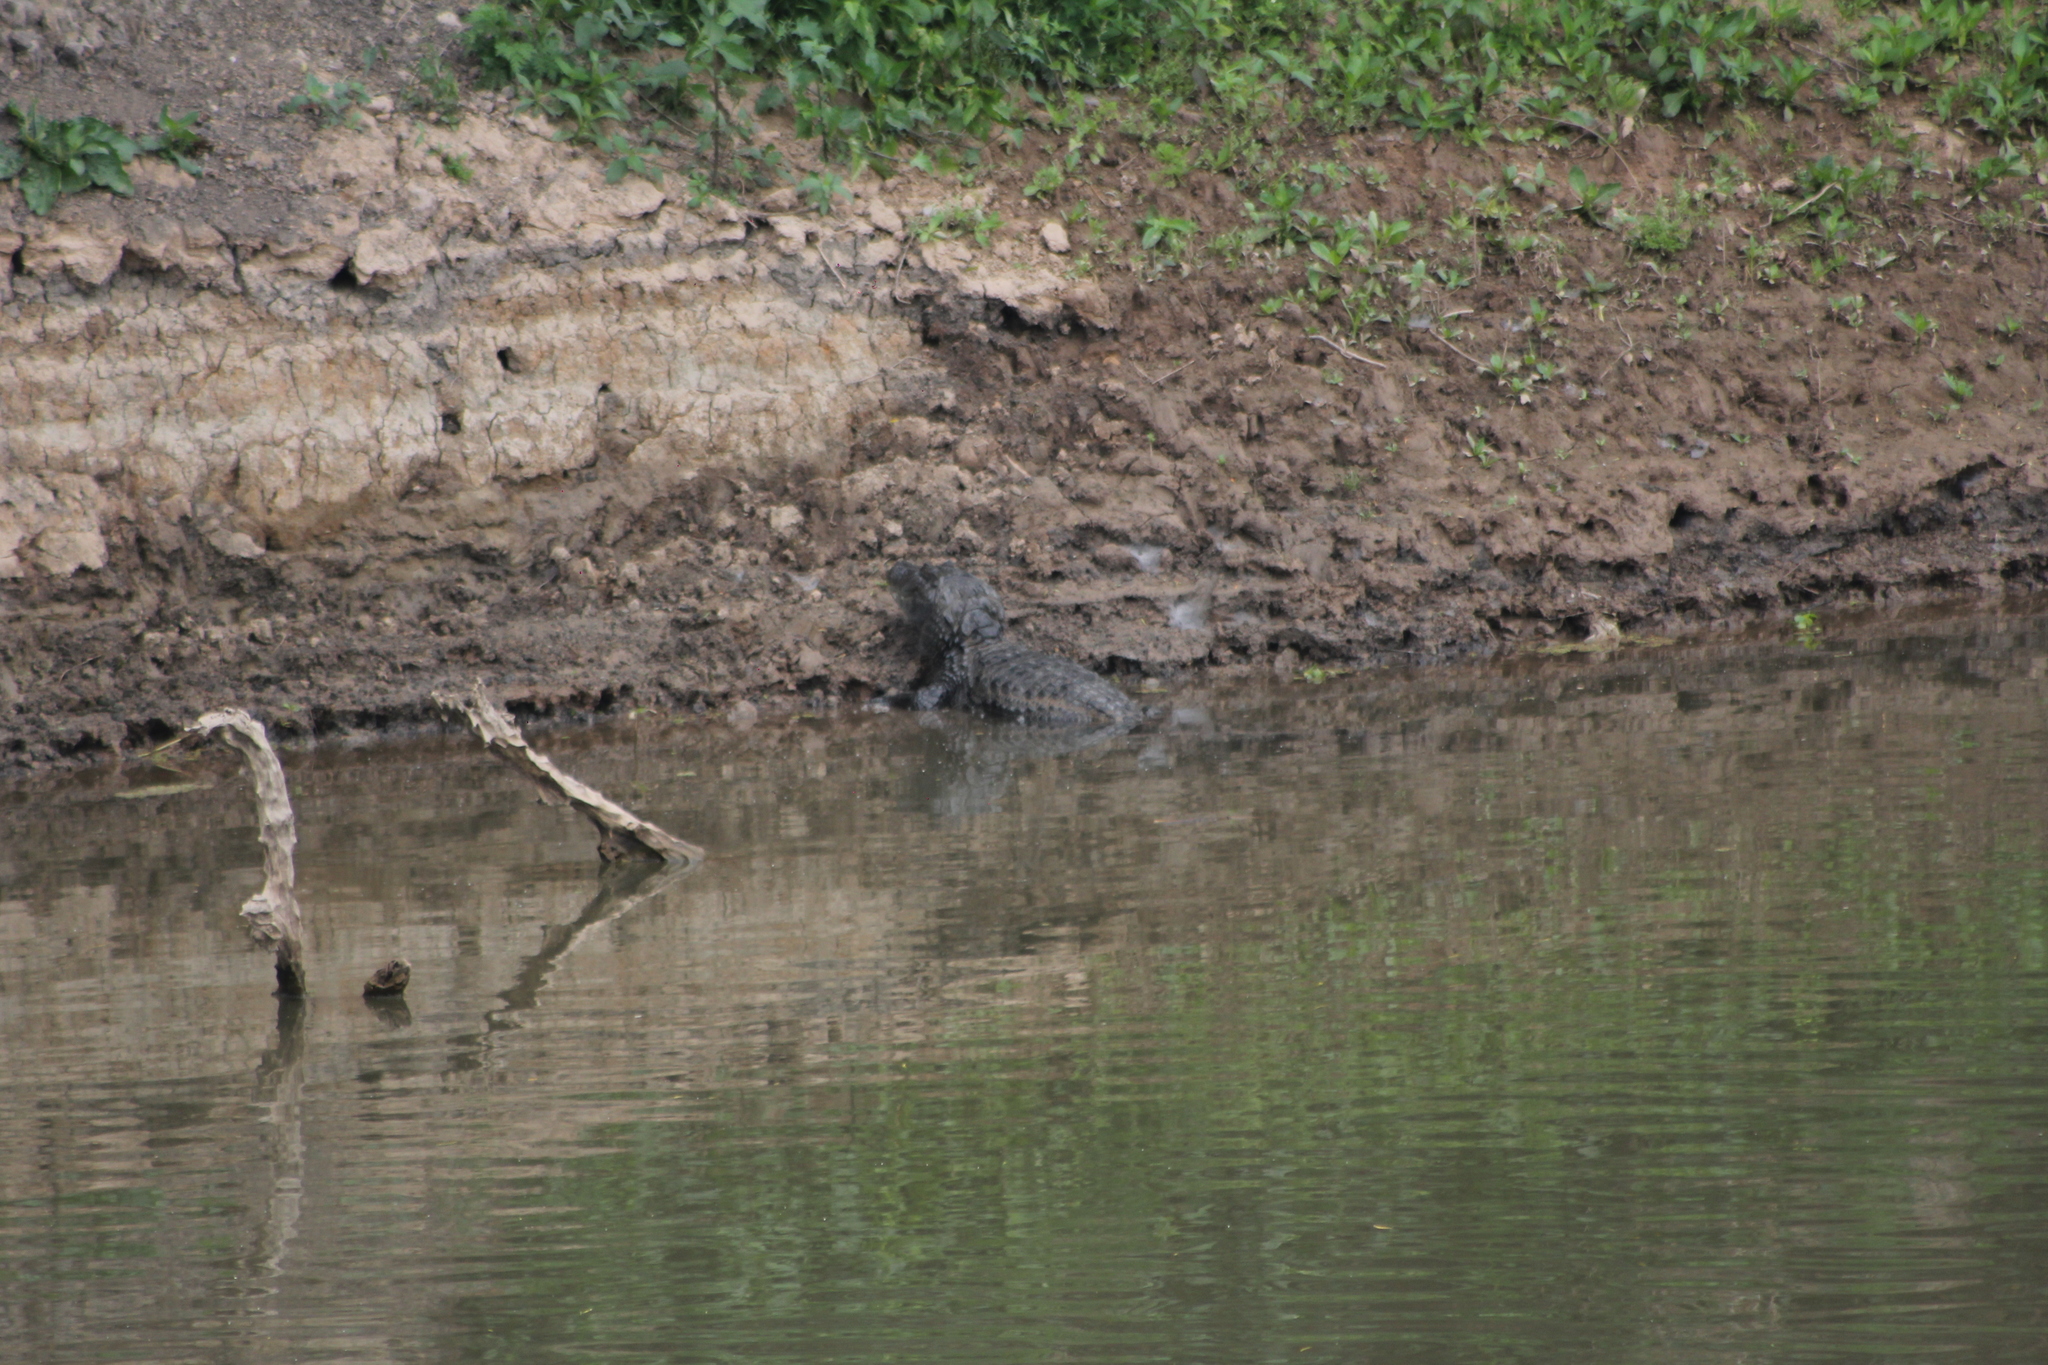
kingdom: Animalia
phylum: Chordata
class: Crocodylia
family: Alligatoridae
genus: Caiman
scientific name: Caiman latirostris
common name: Broad-snouted caiman
